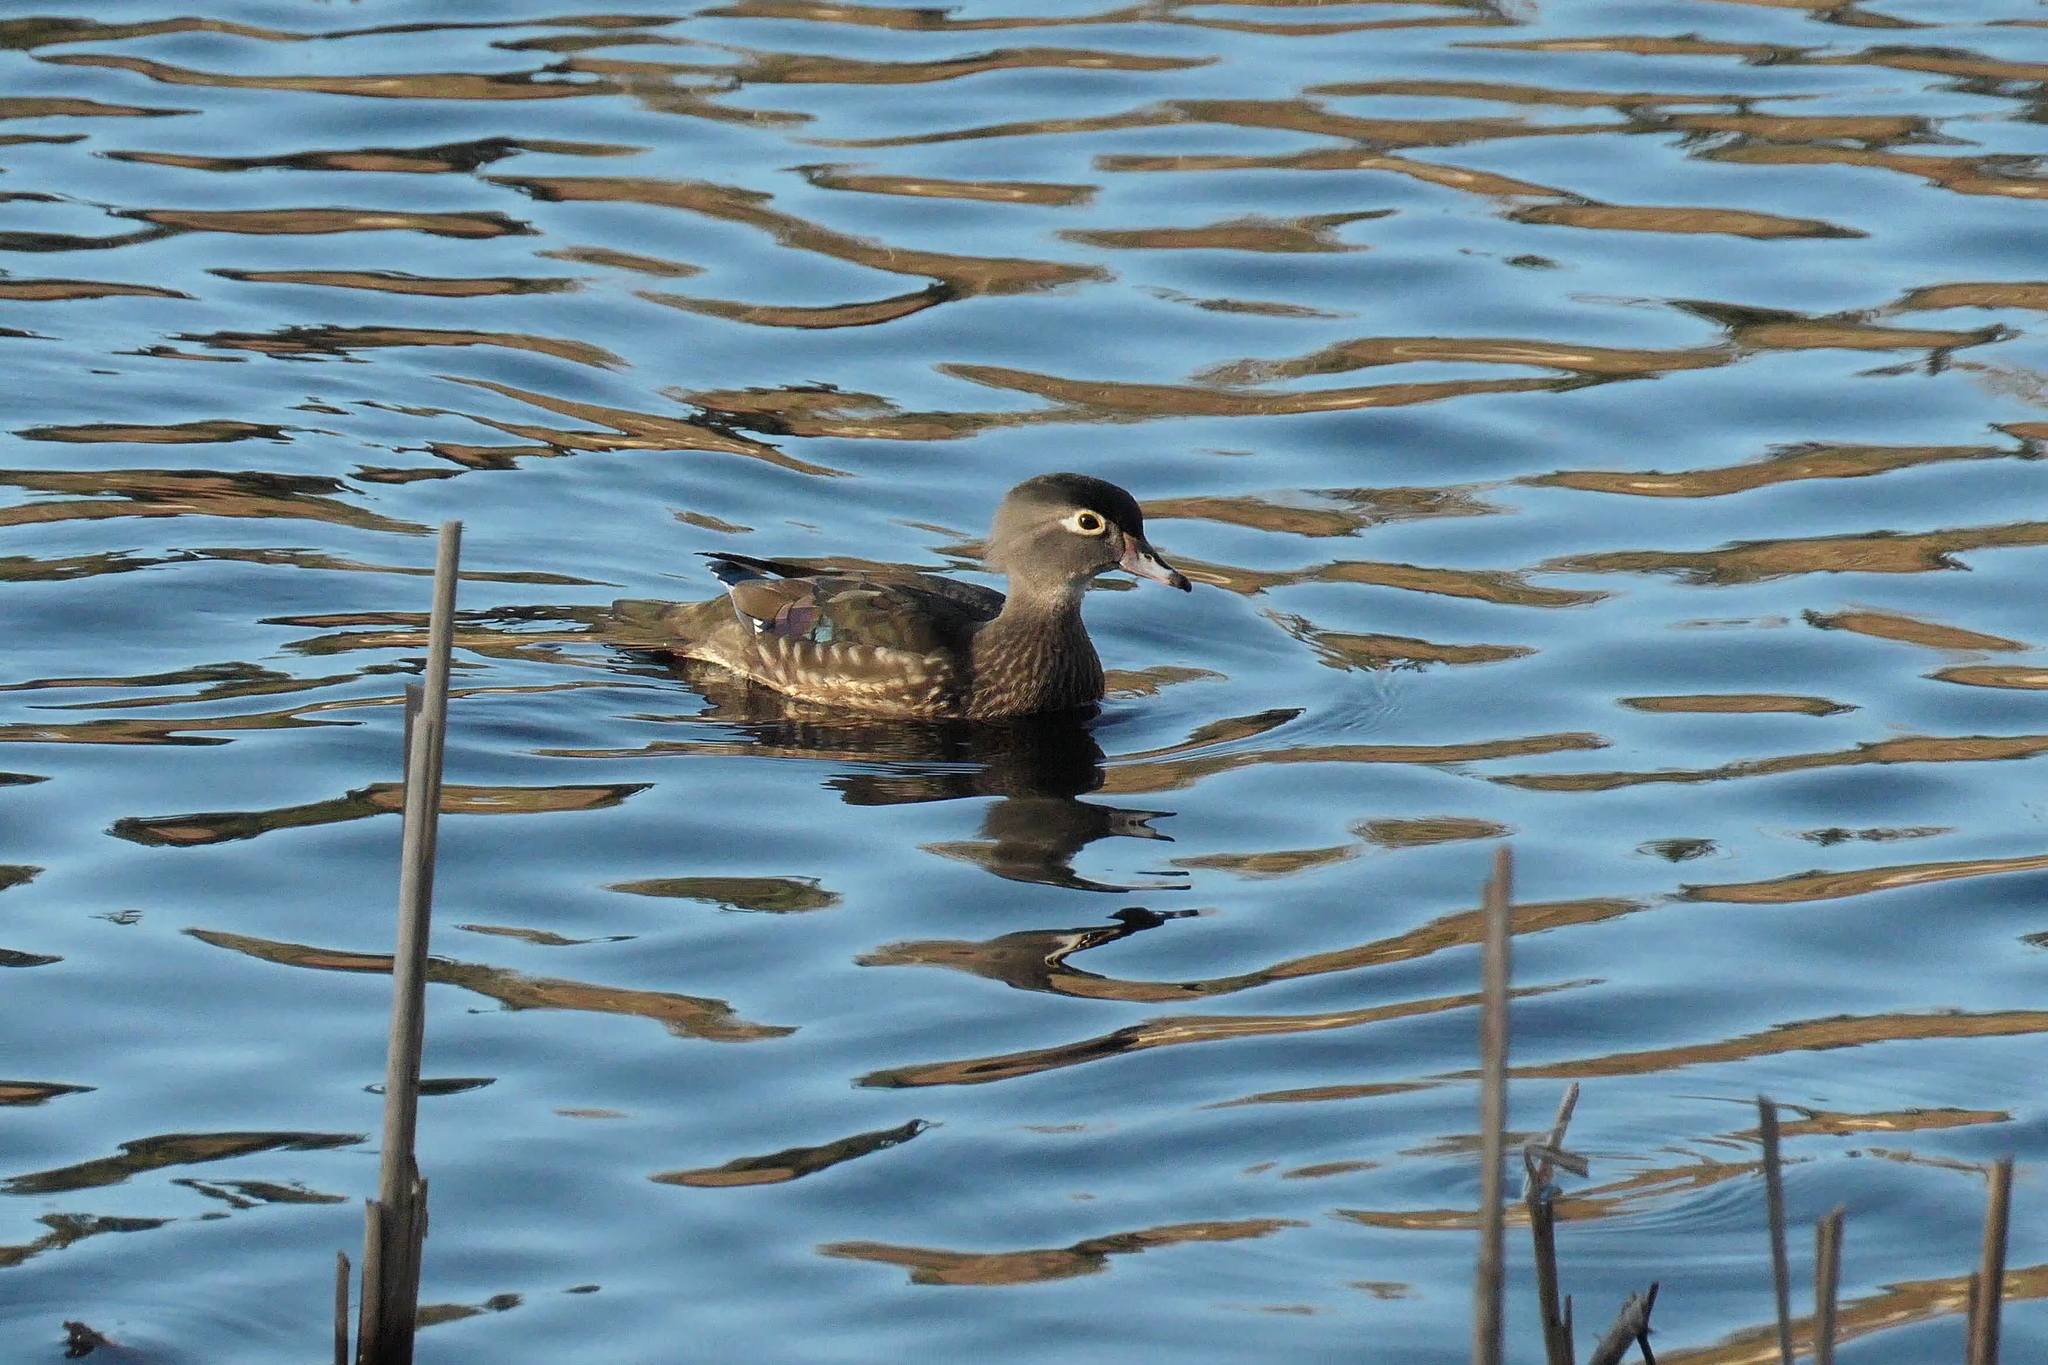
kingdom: Animalia
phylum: Chordata
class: Aves
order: Anseriformes
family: Anatidae
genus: Aix
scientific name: Aix sponsa
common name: Wood duck
